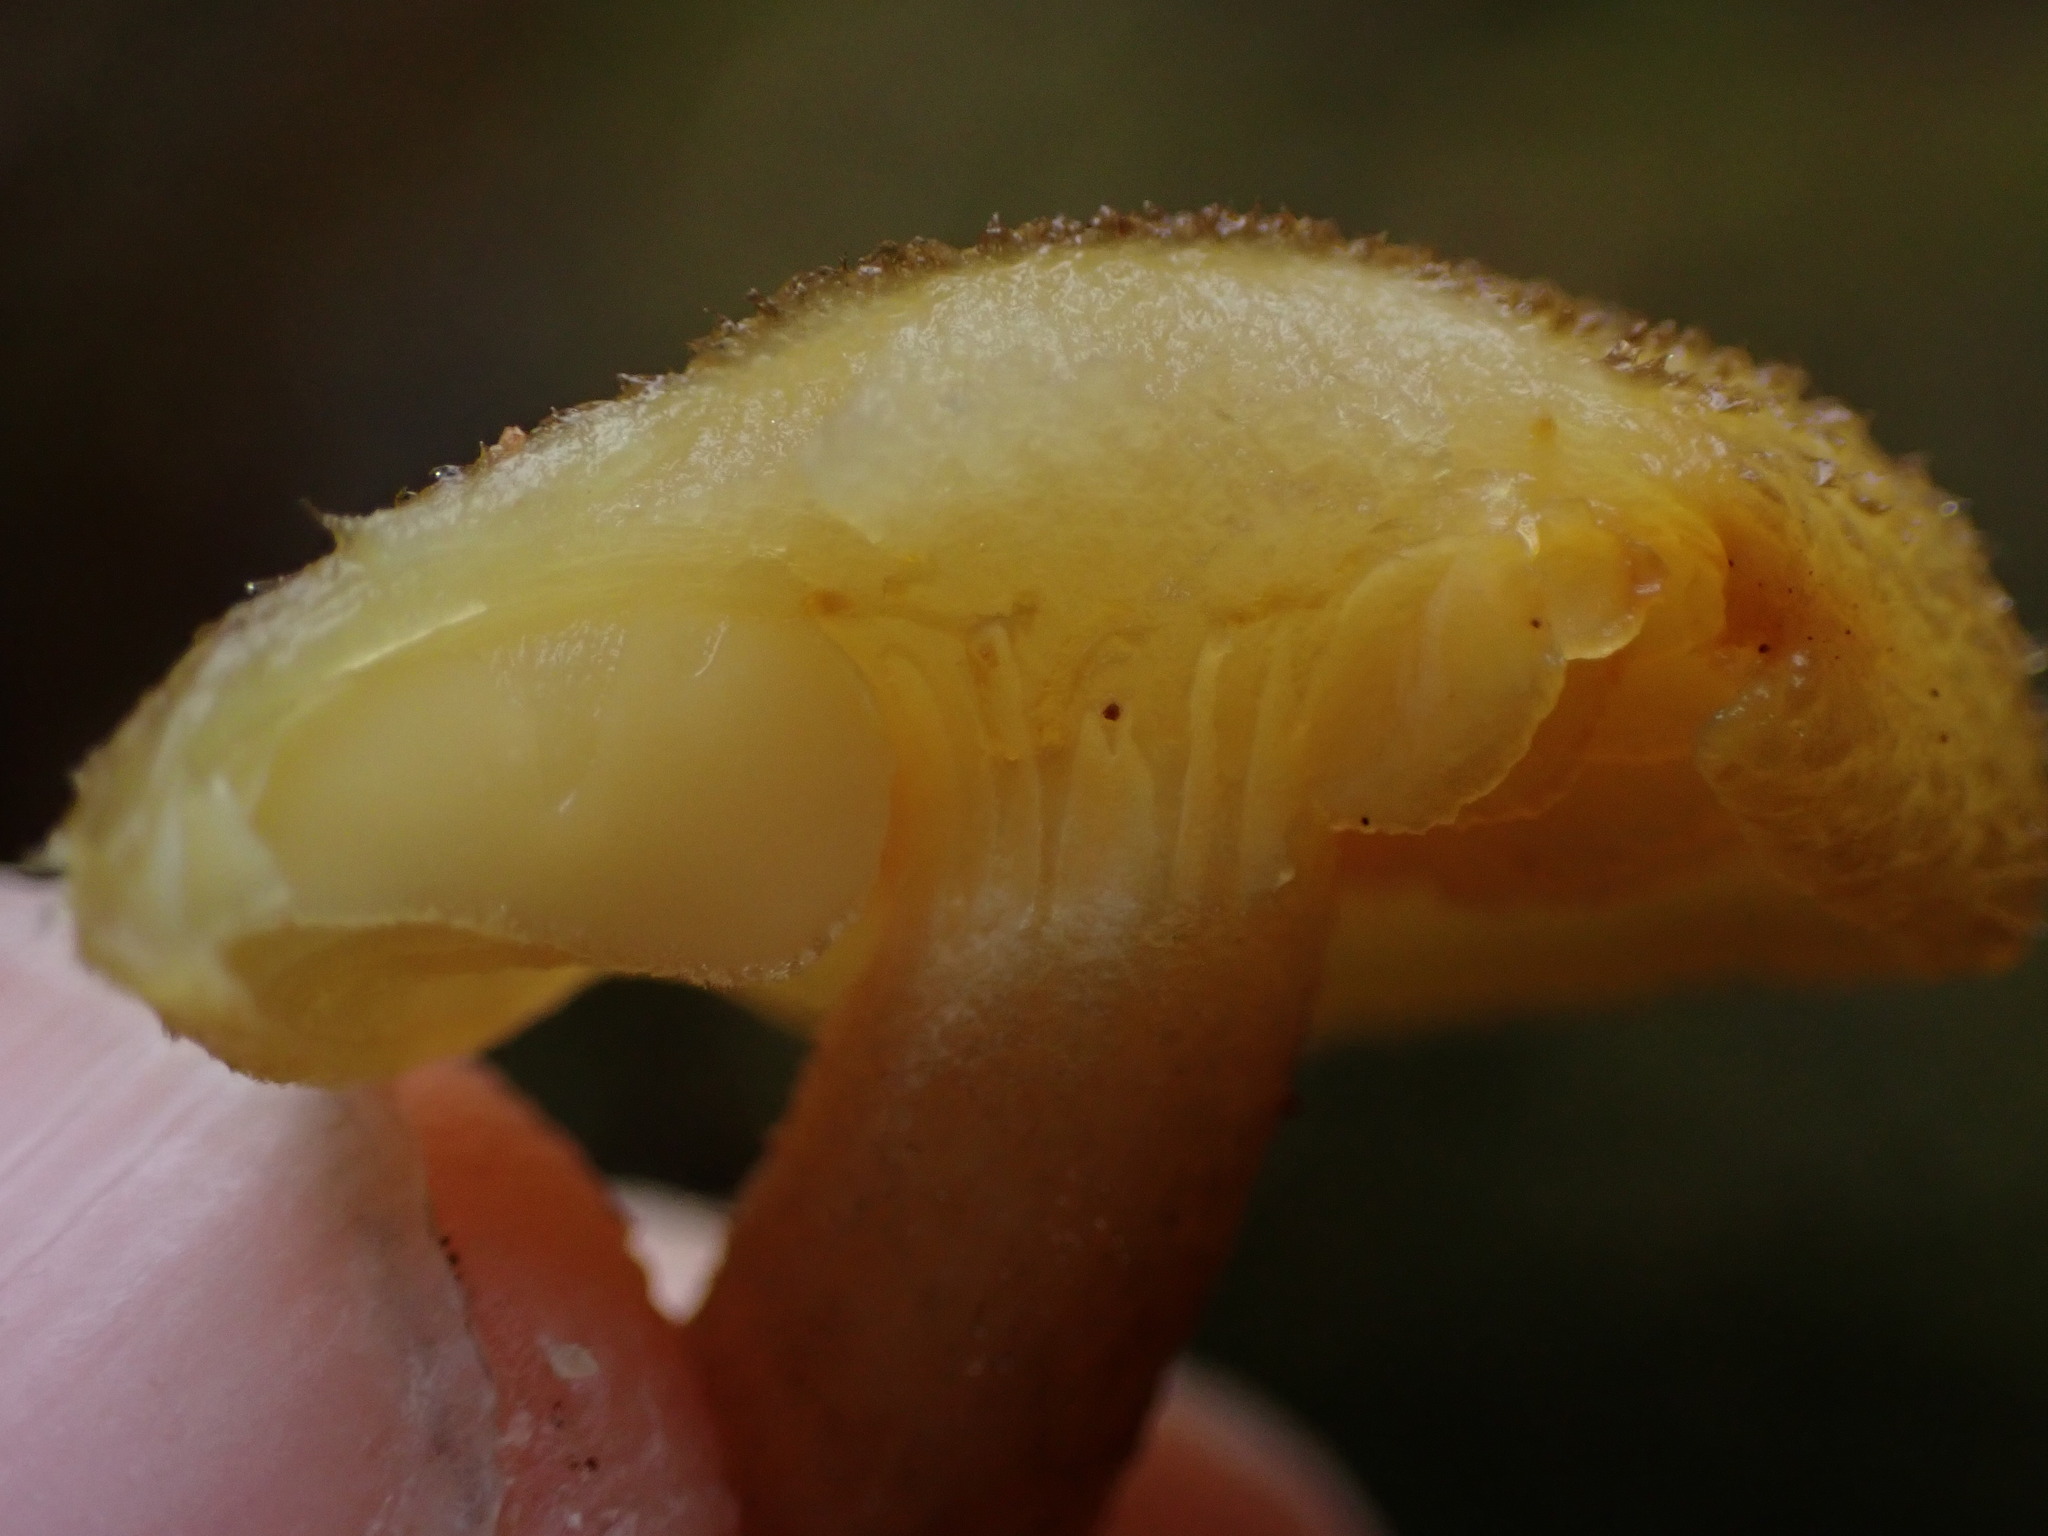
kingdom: Fungi
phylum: Basidiomycota
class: Agaricomycetes
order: Agaricales
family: Tricholomataceae
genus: Tricholomopsis
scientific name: Tricholomopsis decora
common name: Prunes and custard
